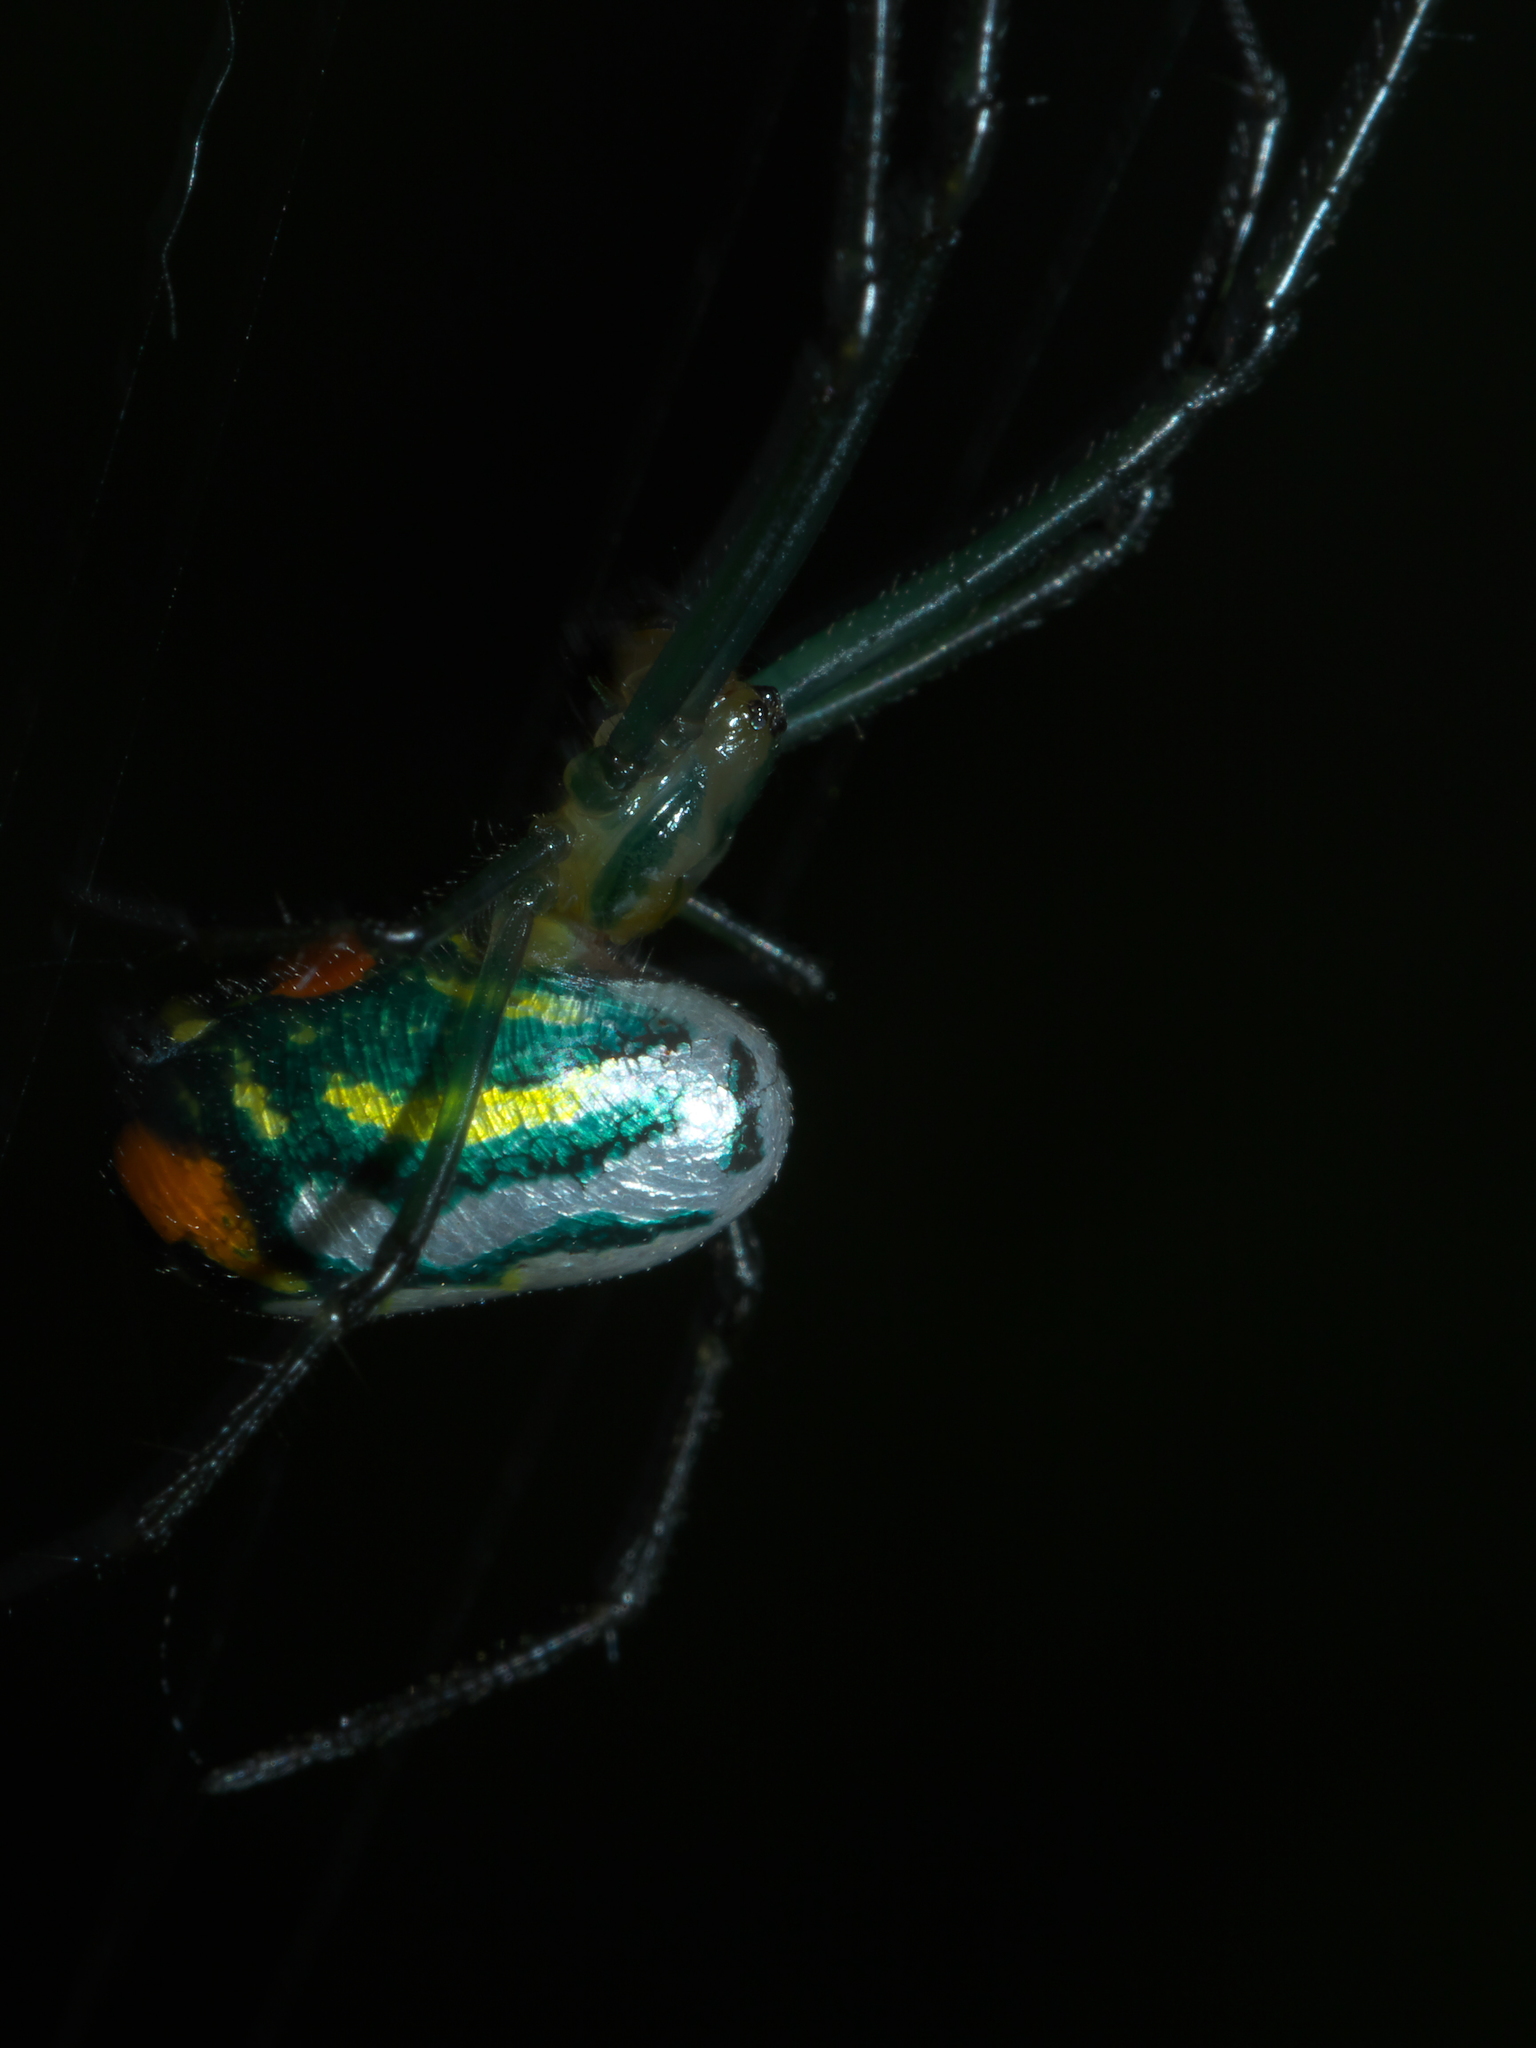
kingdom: Animalia
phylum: Arthropoda
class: Arachnida
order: Araneae
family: Tetragnathidae
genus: Leucauge
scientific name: Leucauge argyrobapta
